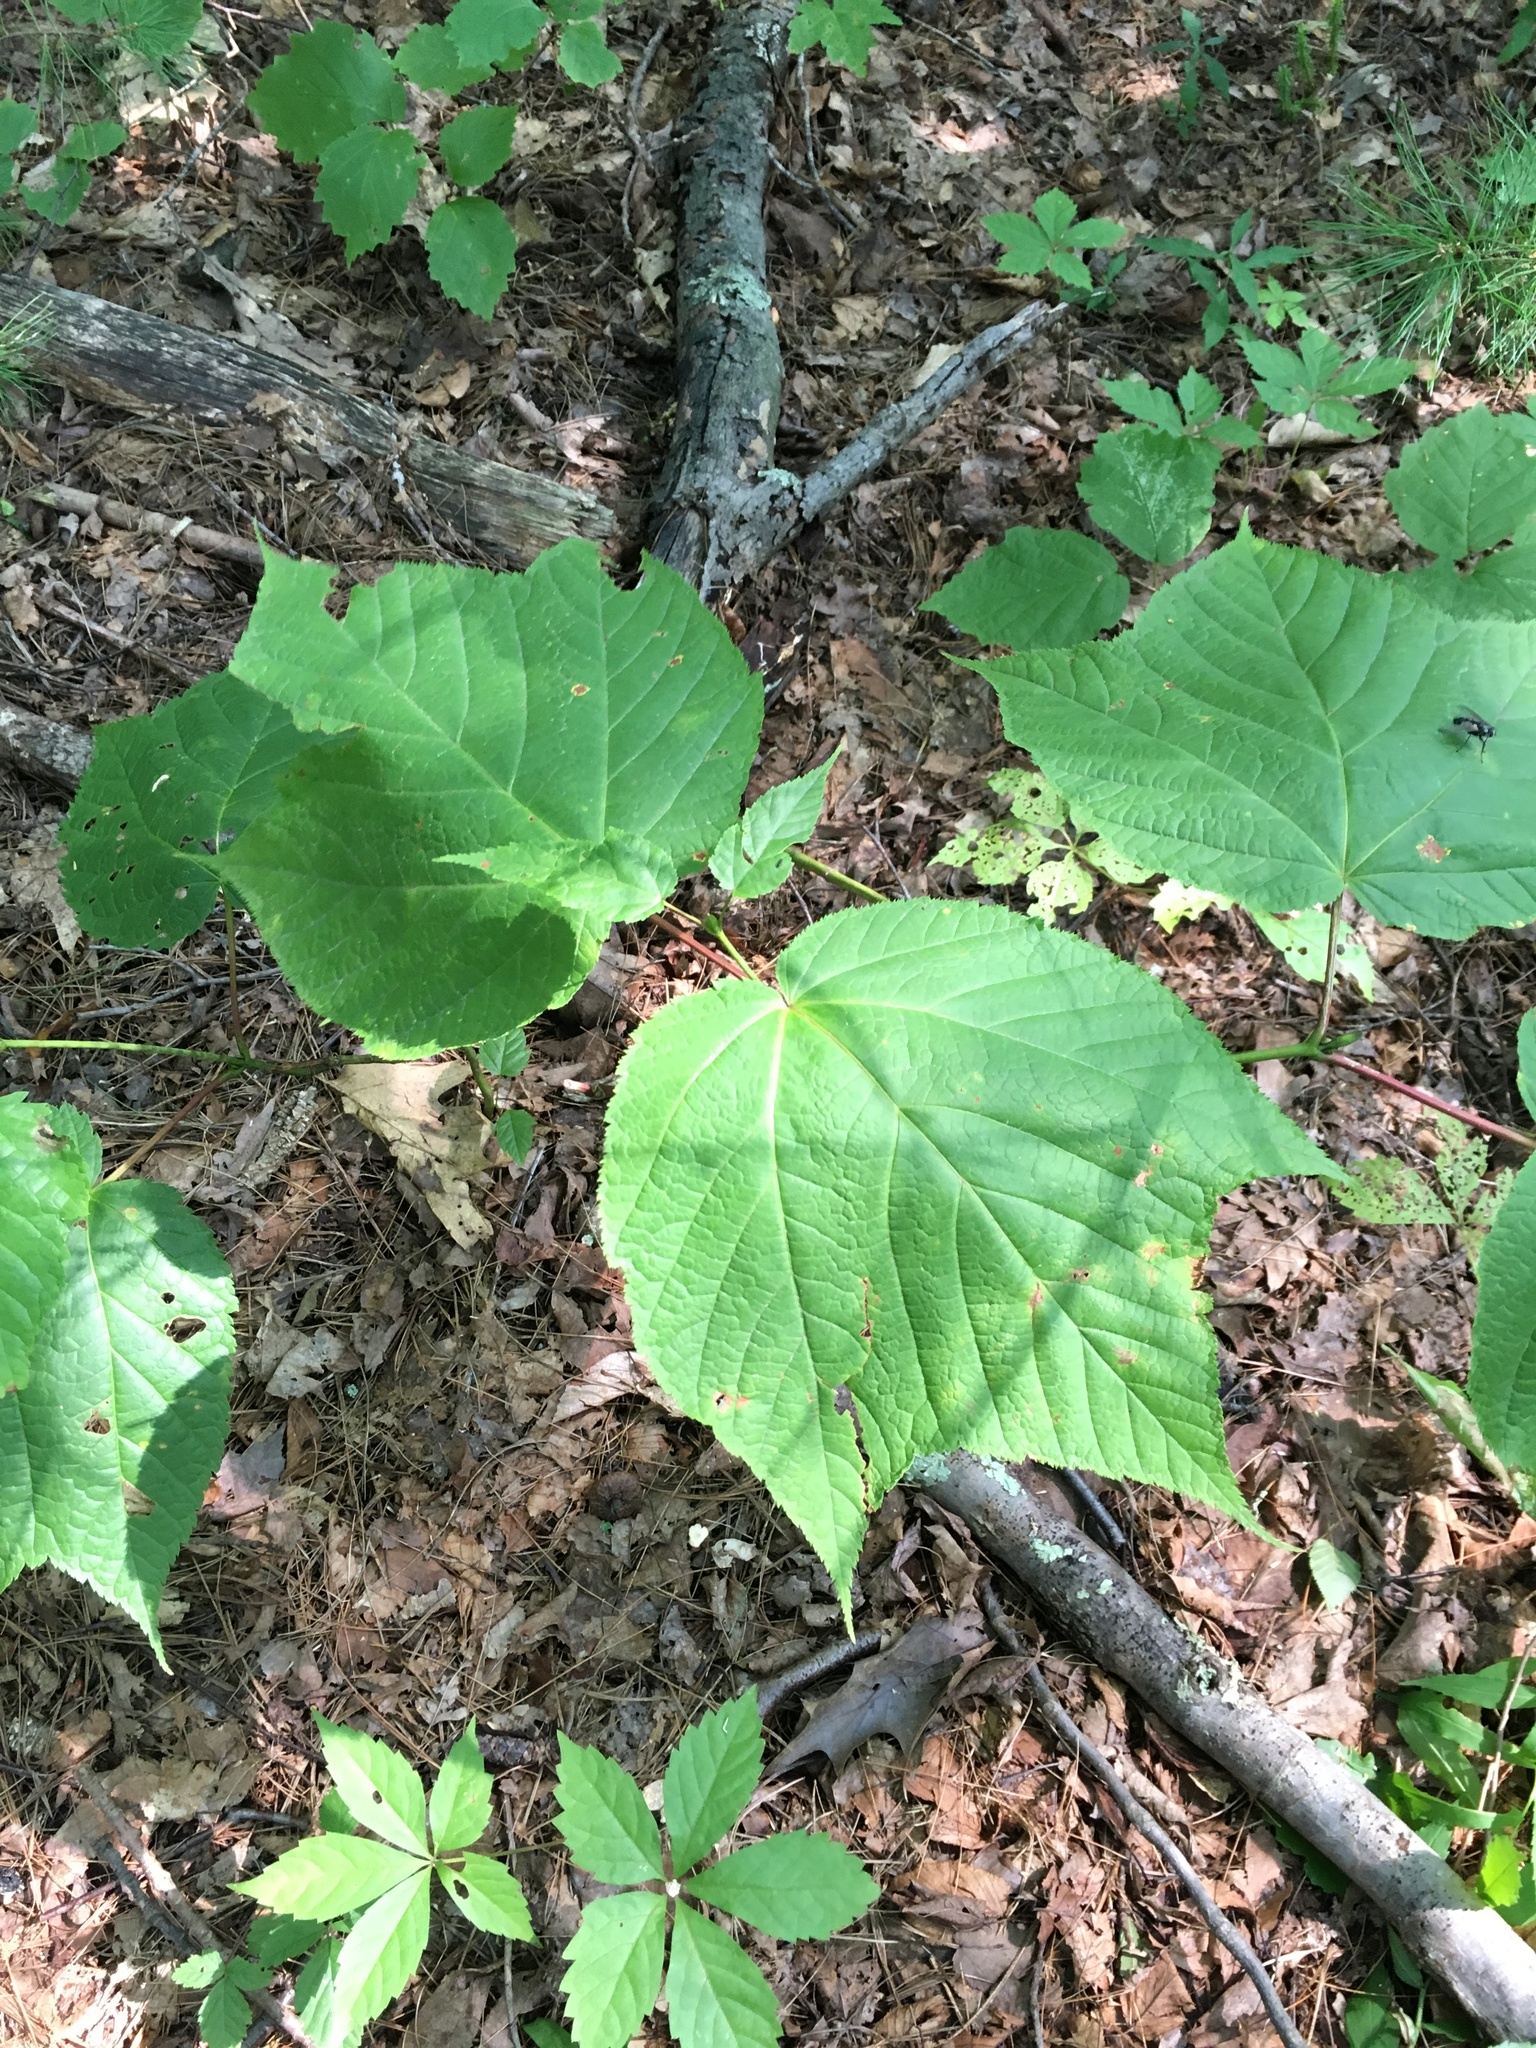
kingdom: Plantae
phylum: Tracheophyta
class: Magnoliopsida
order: Sapindales
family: Sapindaceae
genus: Acer
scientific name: Acer pensylvanicum
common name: Moosewood
